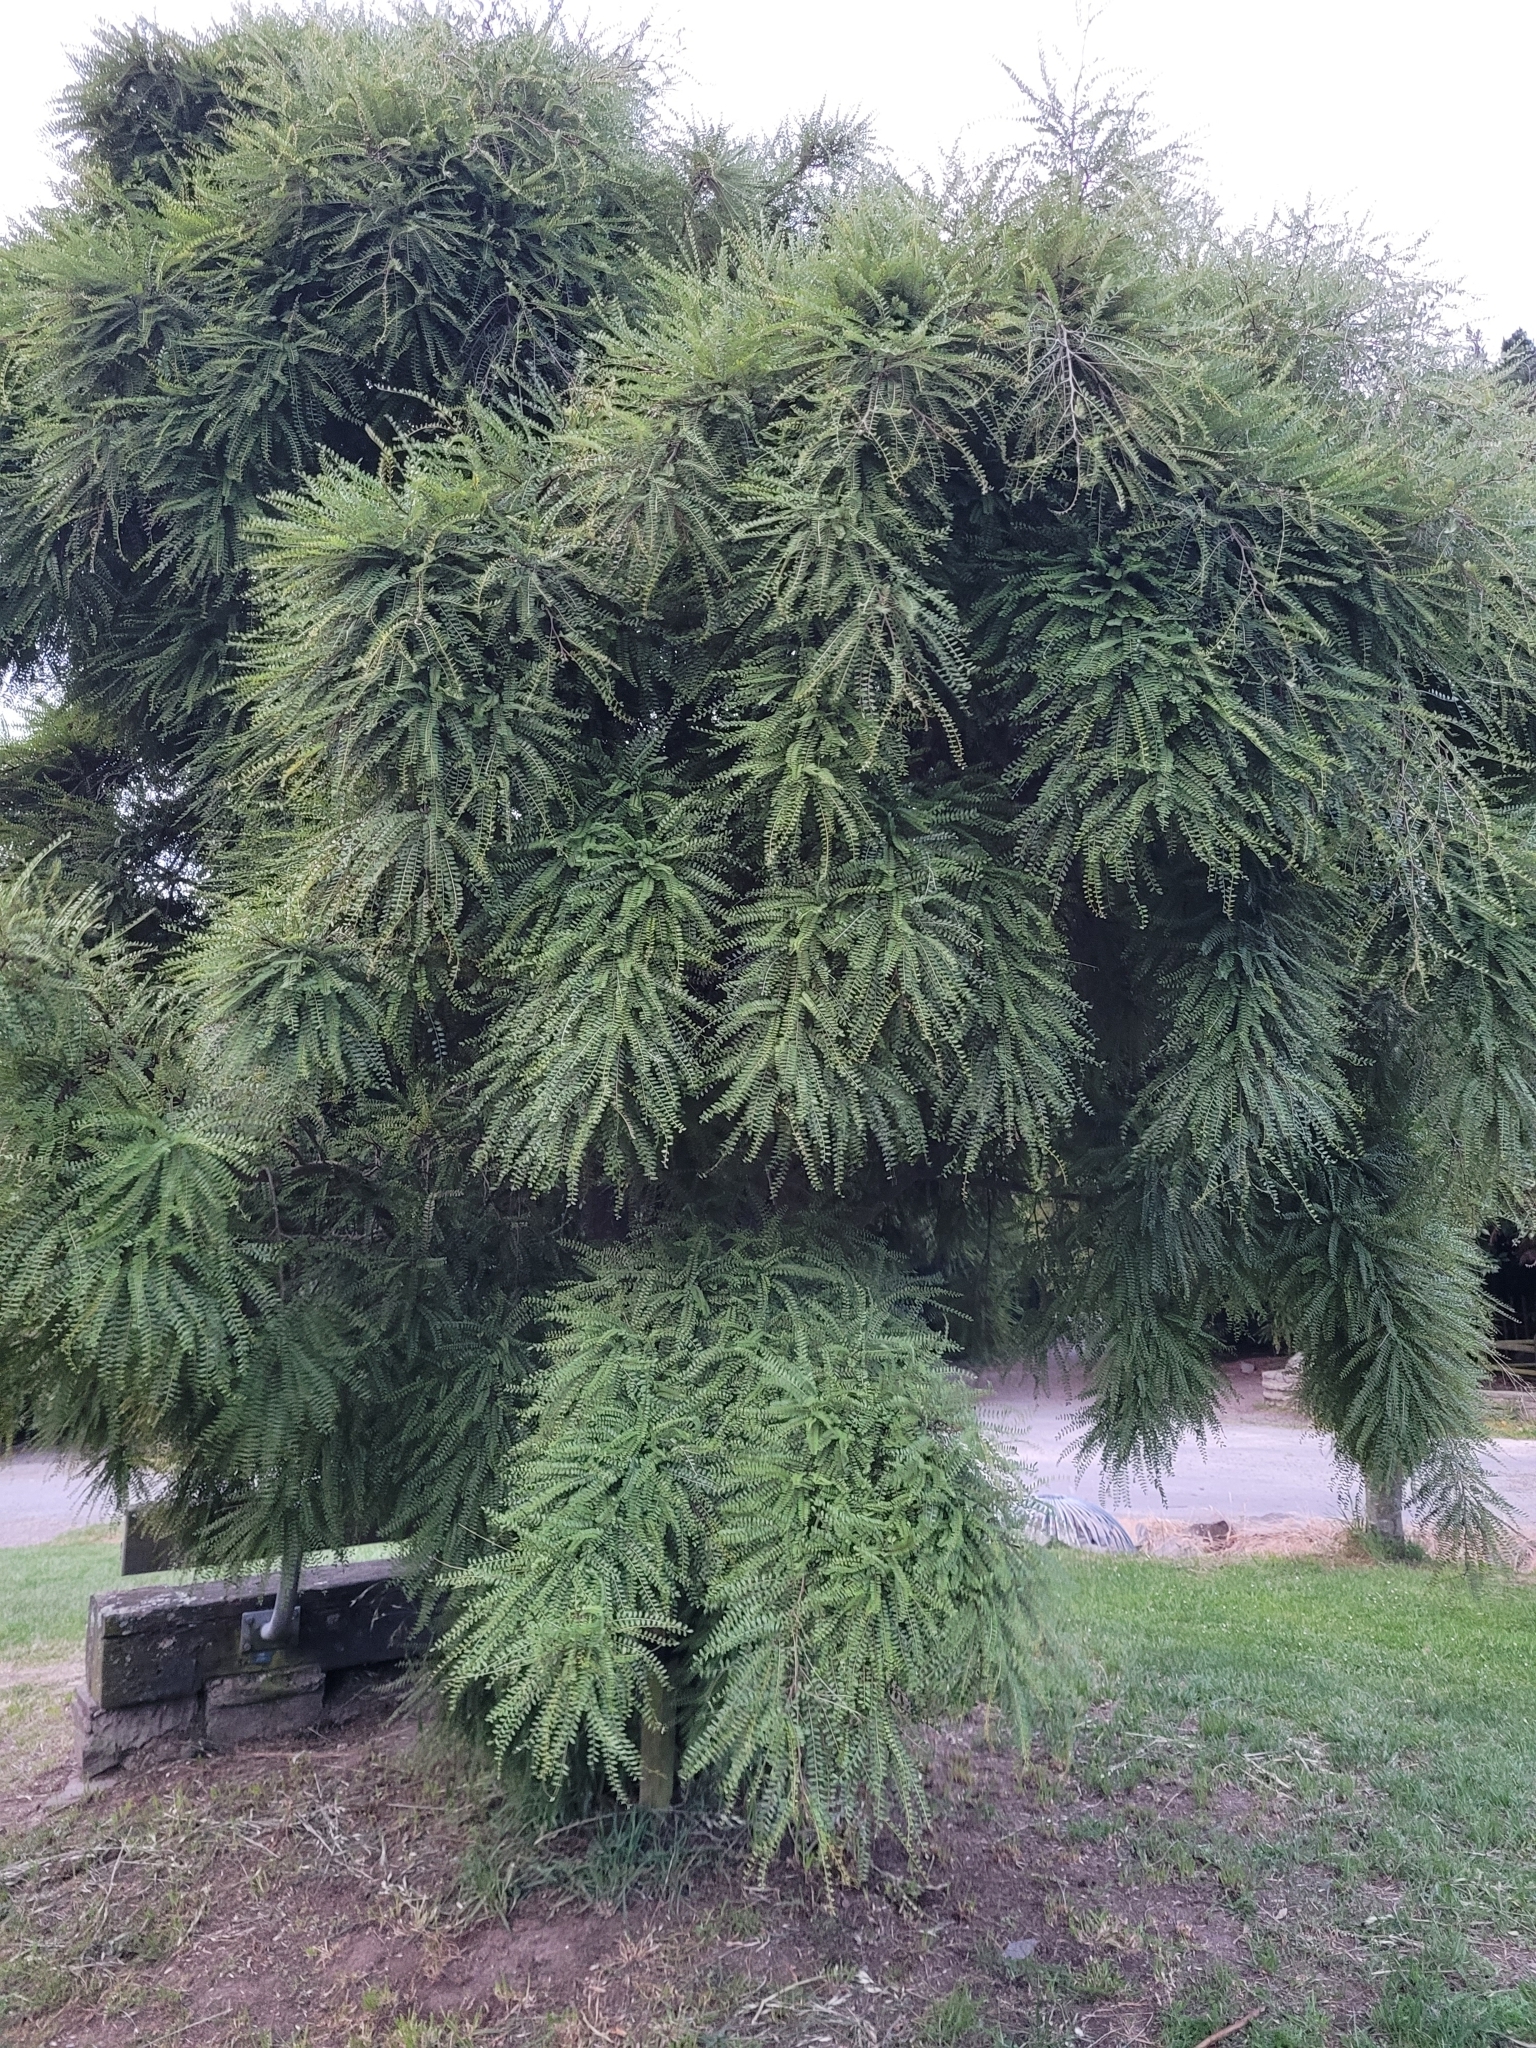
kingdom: Plantae
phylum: Tracheophyta
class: Magnoliopsida
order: Fabales
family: Fabaceae
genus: Sophora
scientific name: Sophora microphylla
